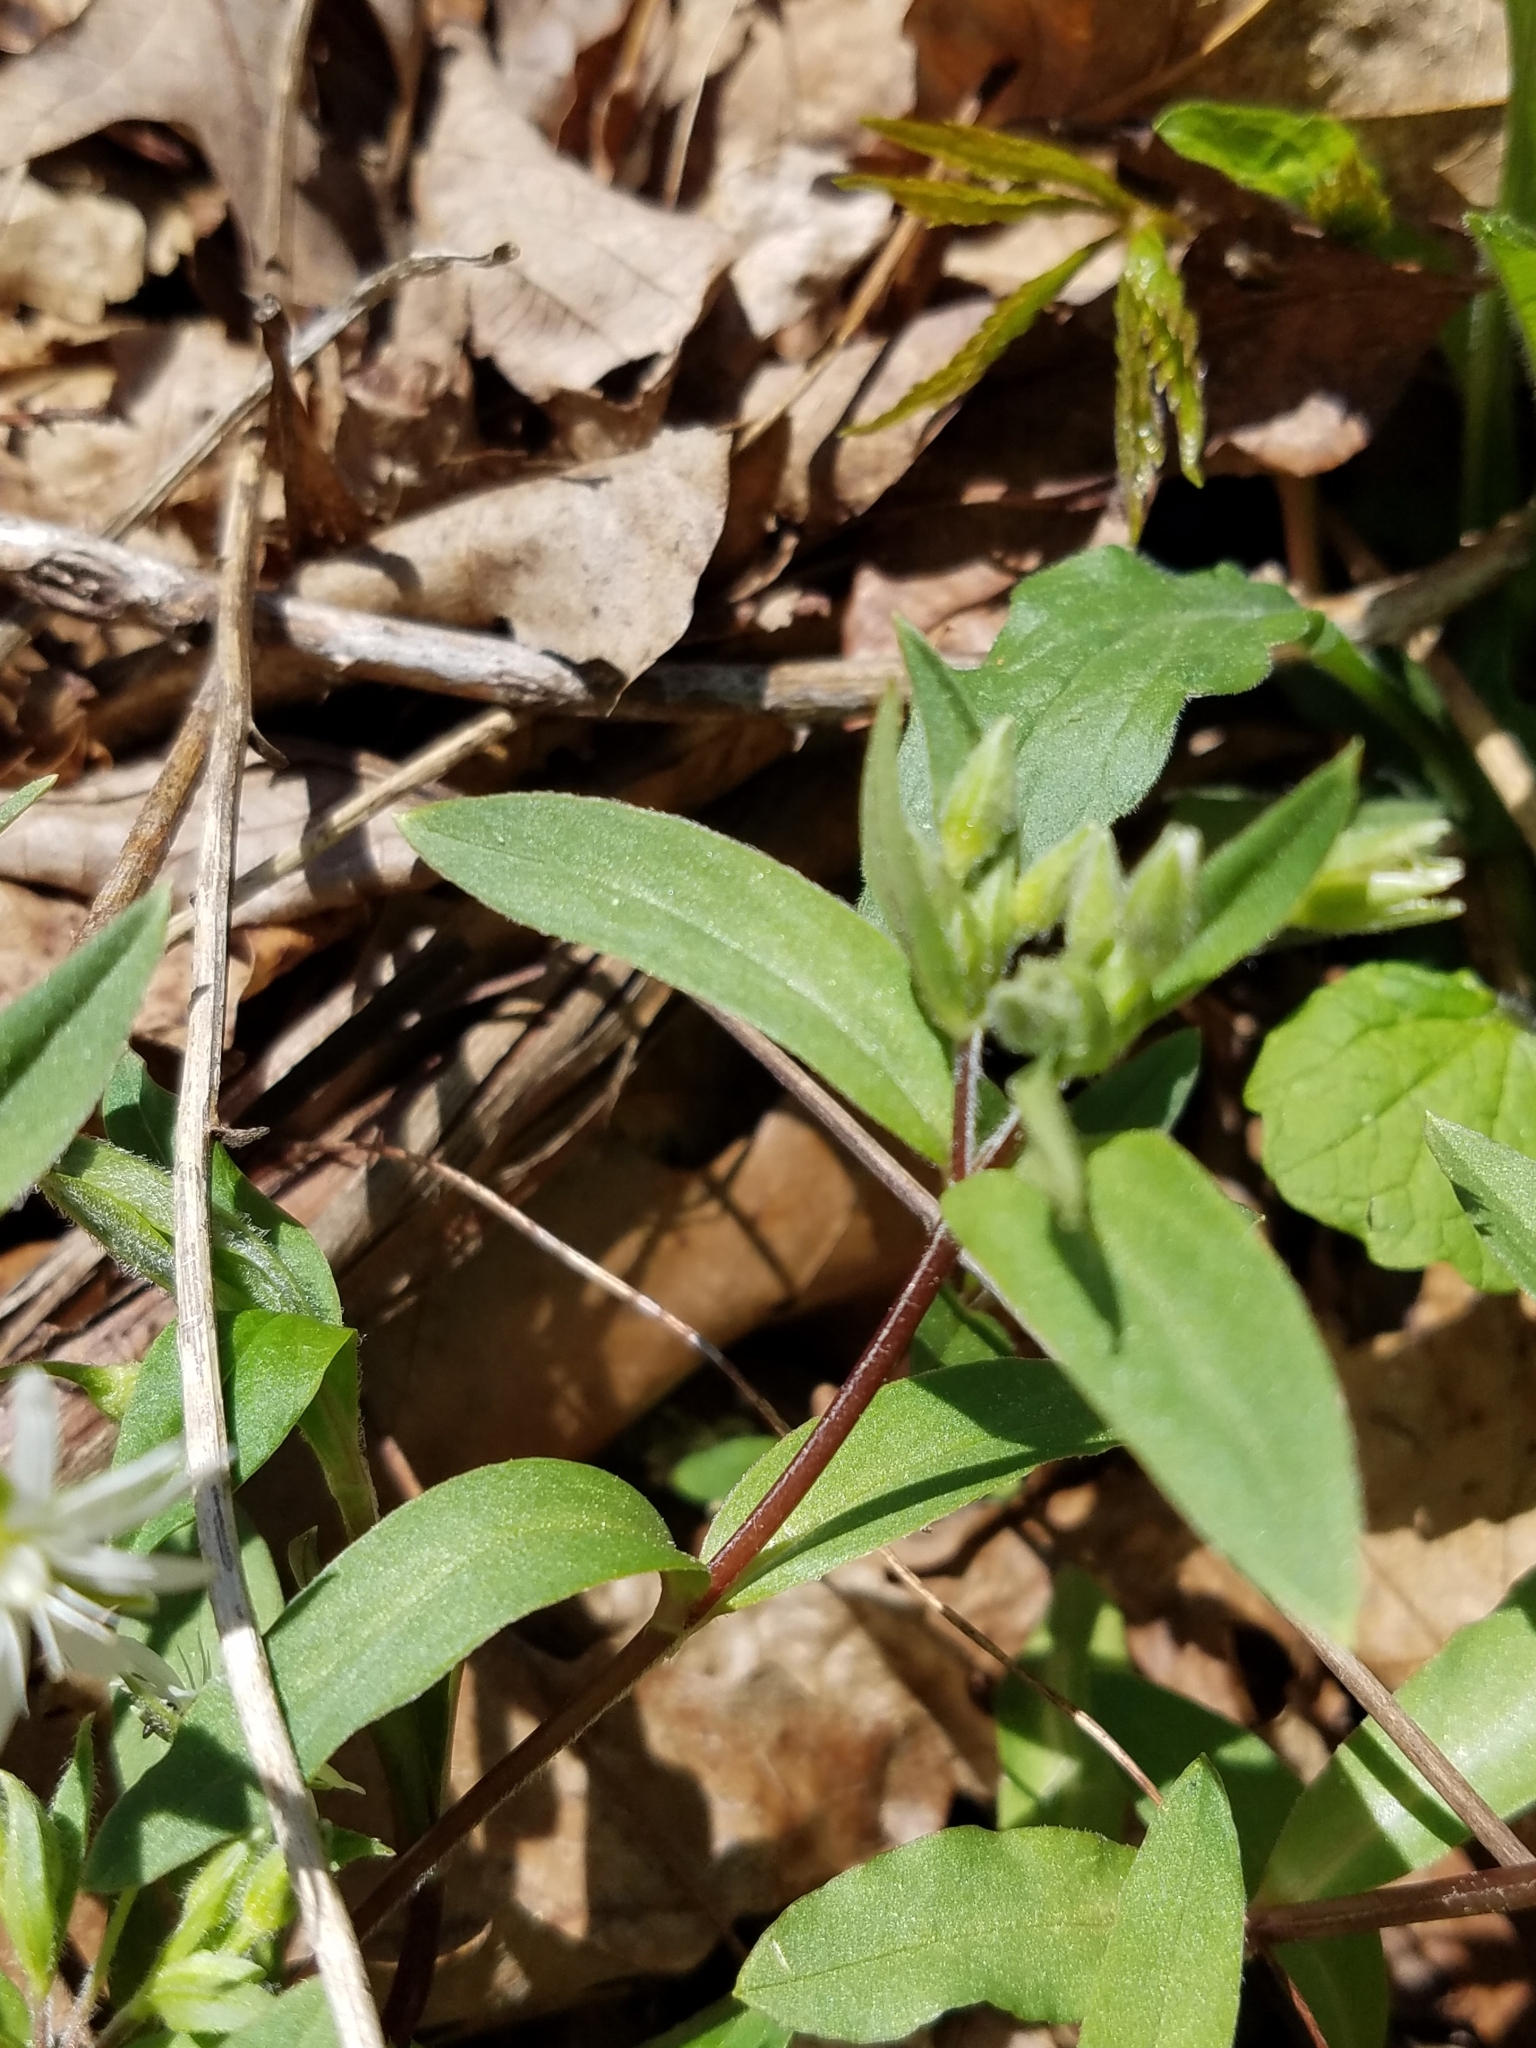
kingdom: Plantae
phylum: Tracheophyta
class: Magnoliopsida
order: Caryophyllales
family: Caryophyllaceae
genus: Stellaria
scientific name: Stellaria pubera
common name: Star chickweed
